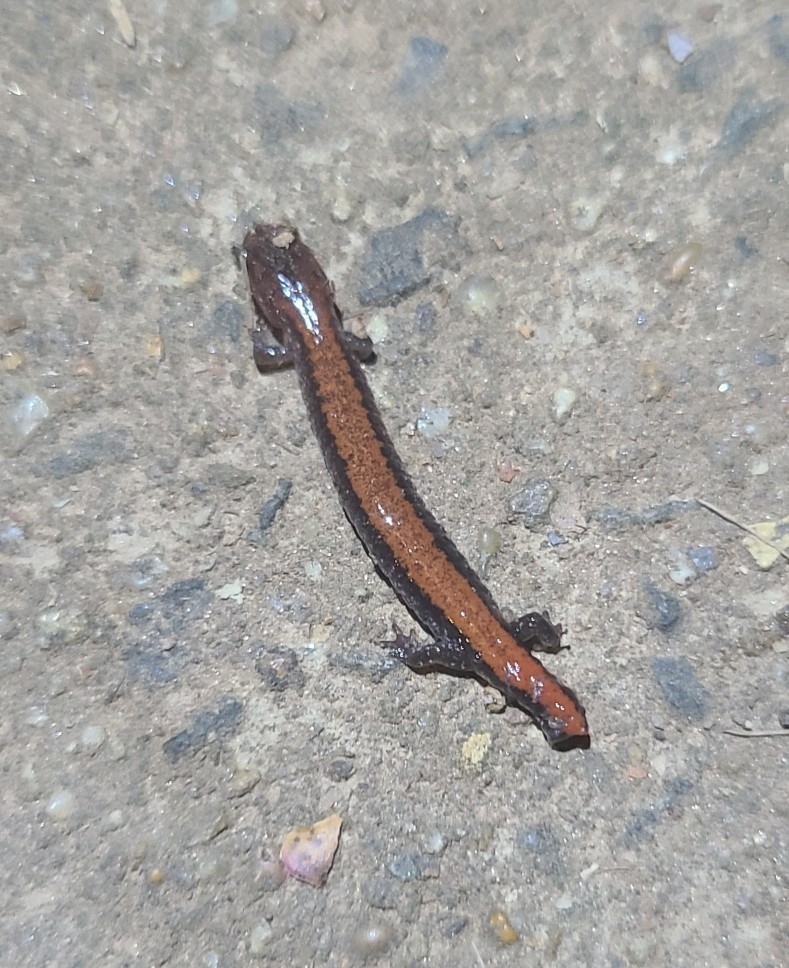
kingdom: Animalia
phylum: Chordata
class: Amphibia
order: Caudata
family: Plethodontidae
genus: Plethodon
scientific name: Plethodon cinereus
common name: Redback salamander
